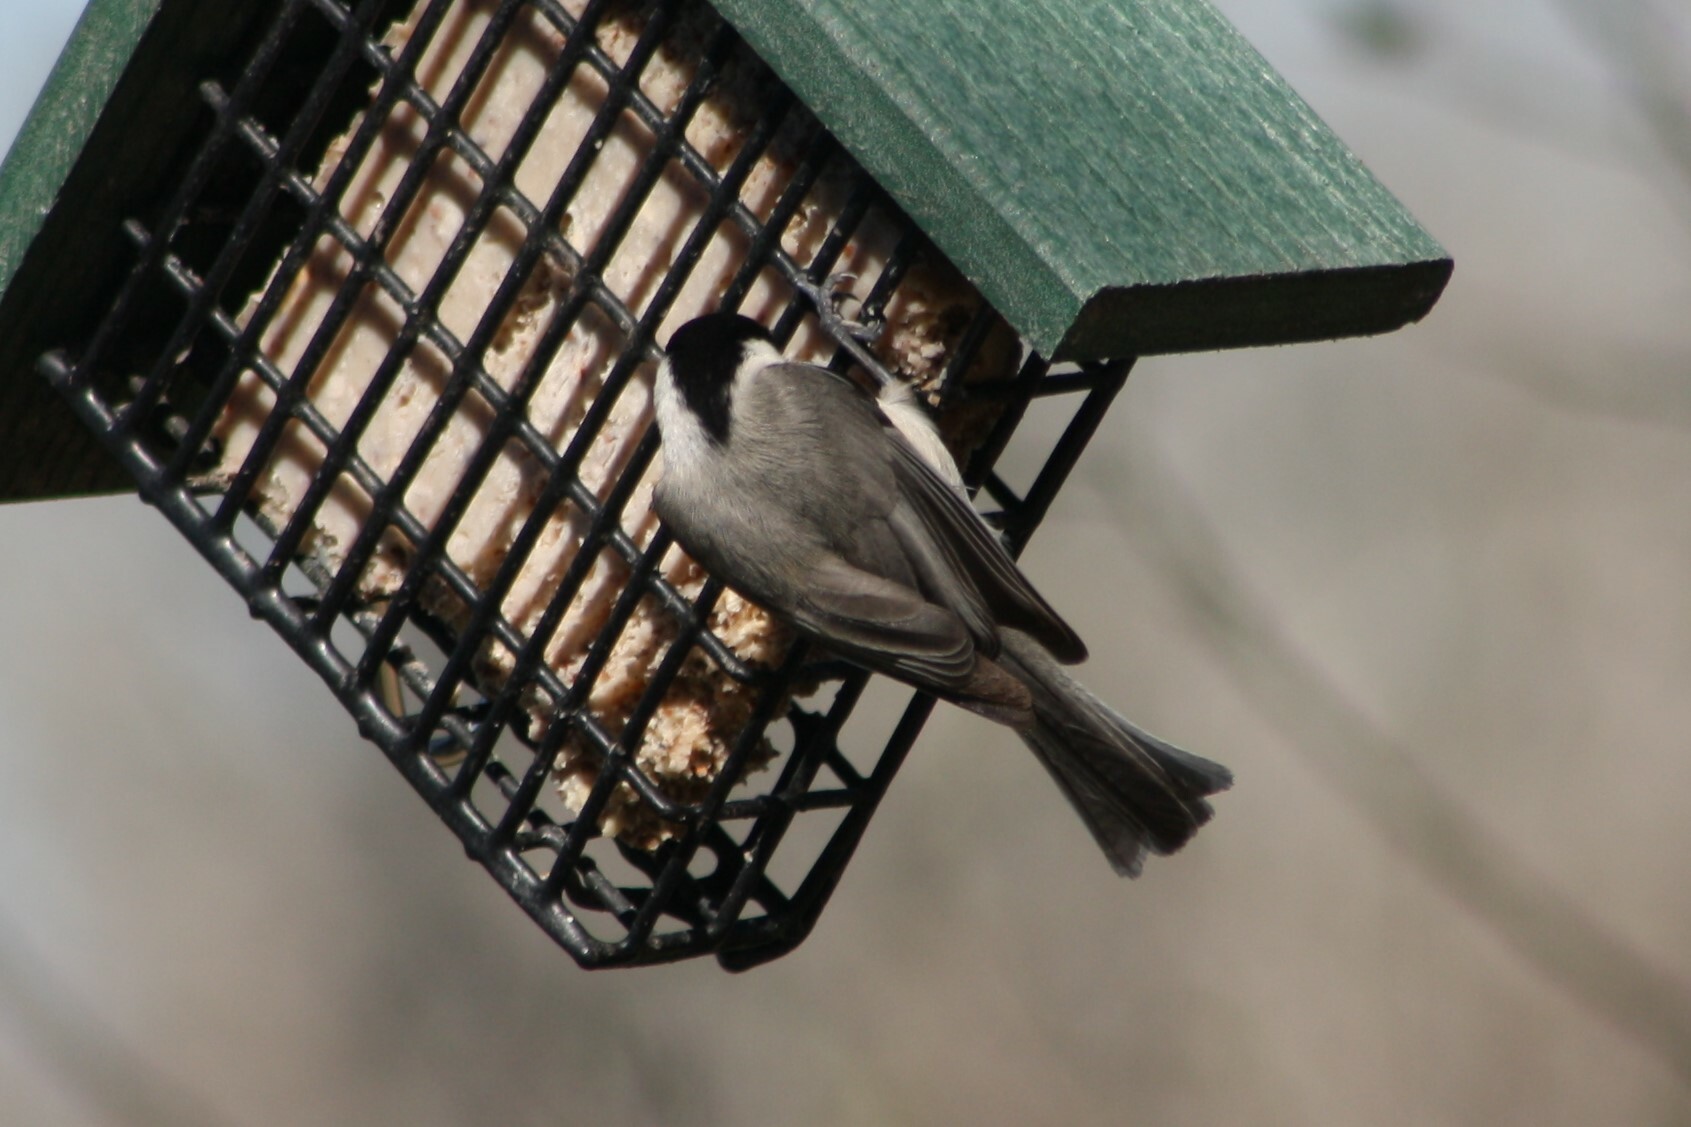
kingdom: Animalia
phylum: Chordata
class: Aves
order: Passeriformes
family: Paridae
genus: Poecile
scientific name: Poecile carolinensis
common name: Carolina chickadee
